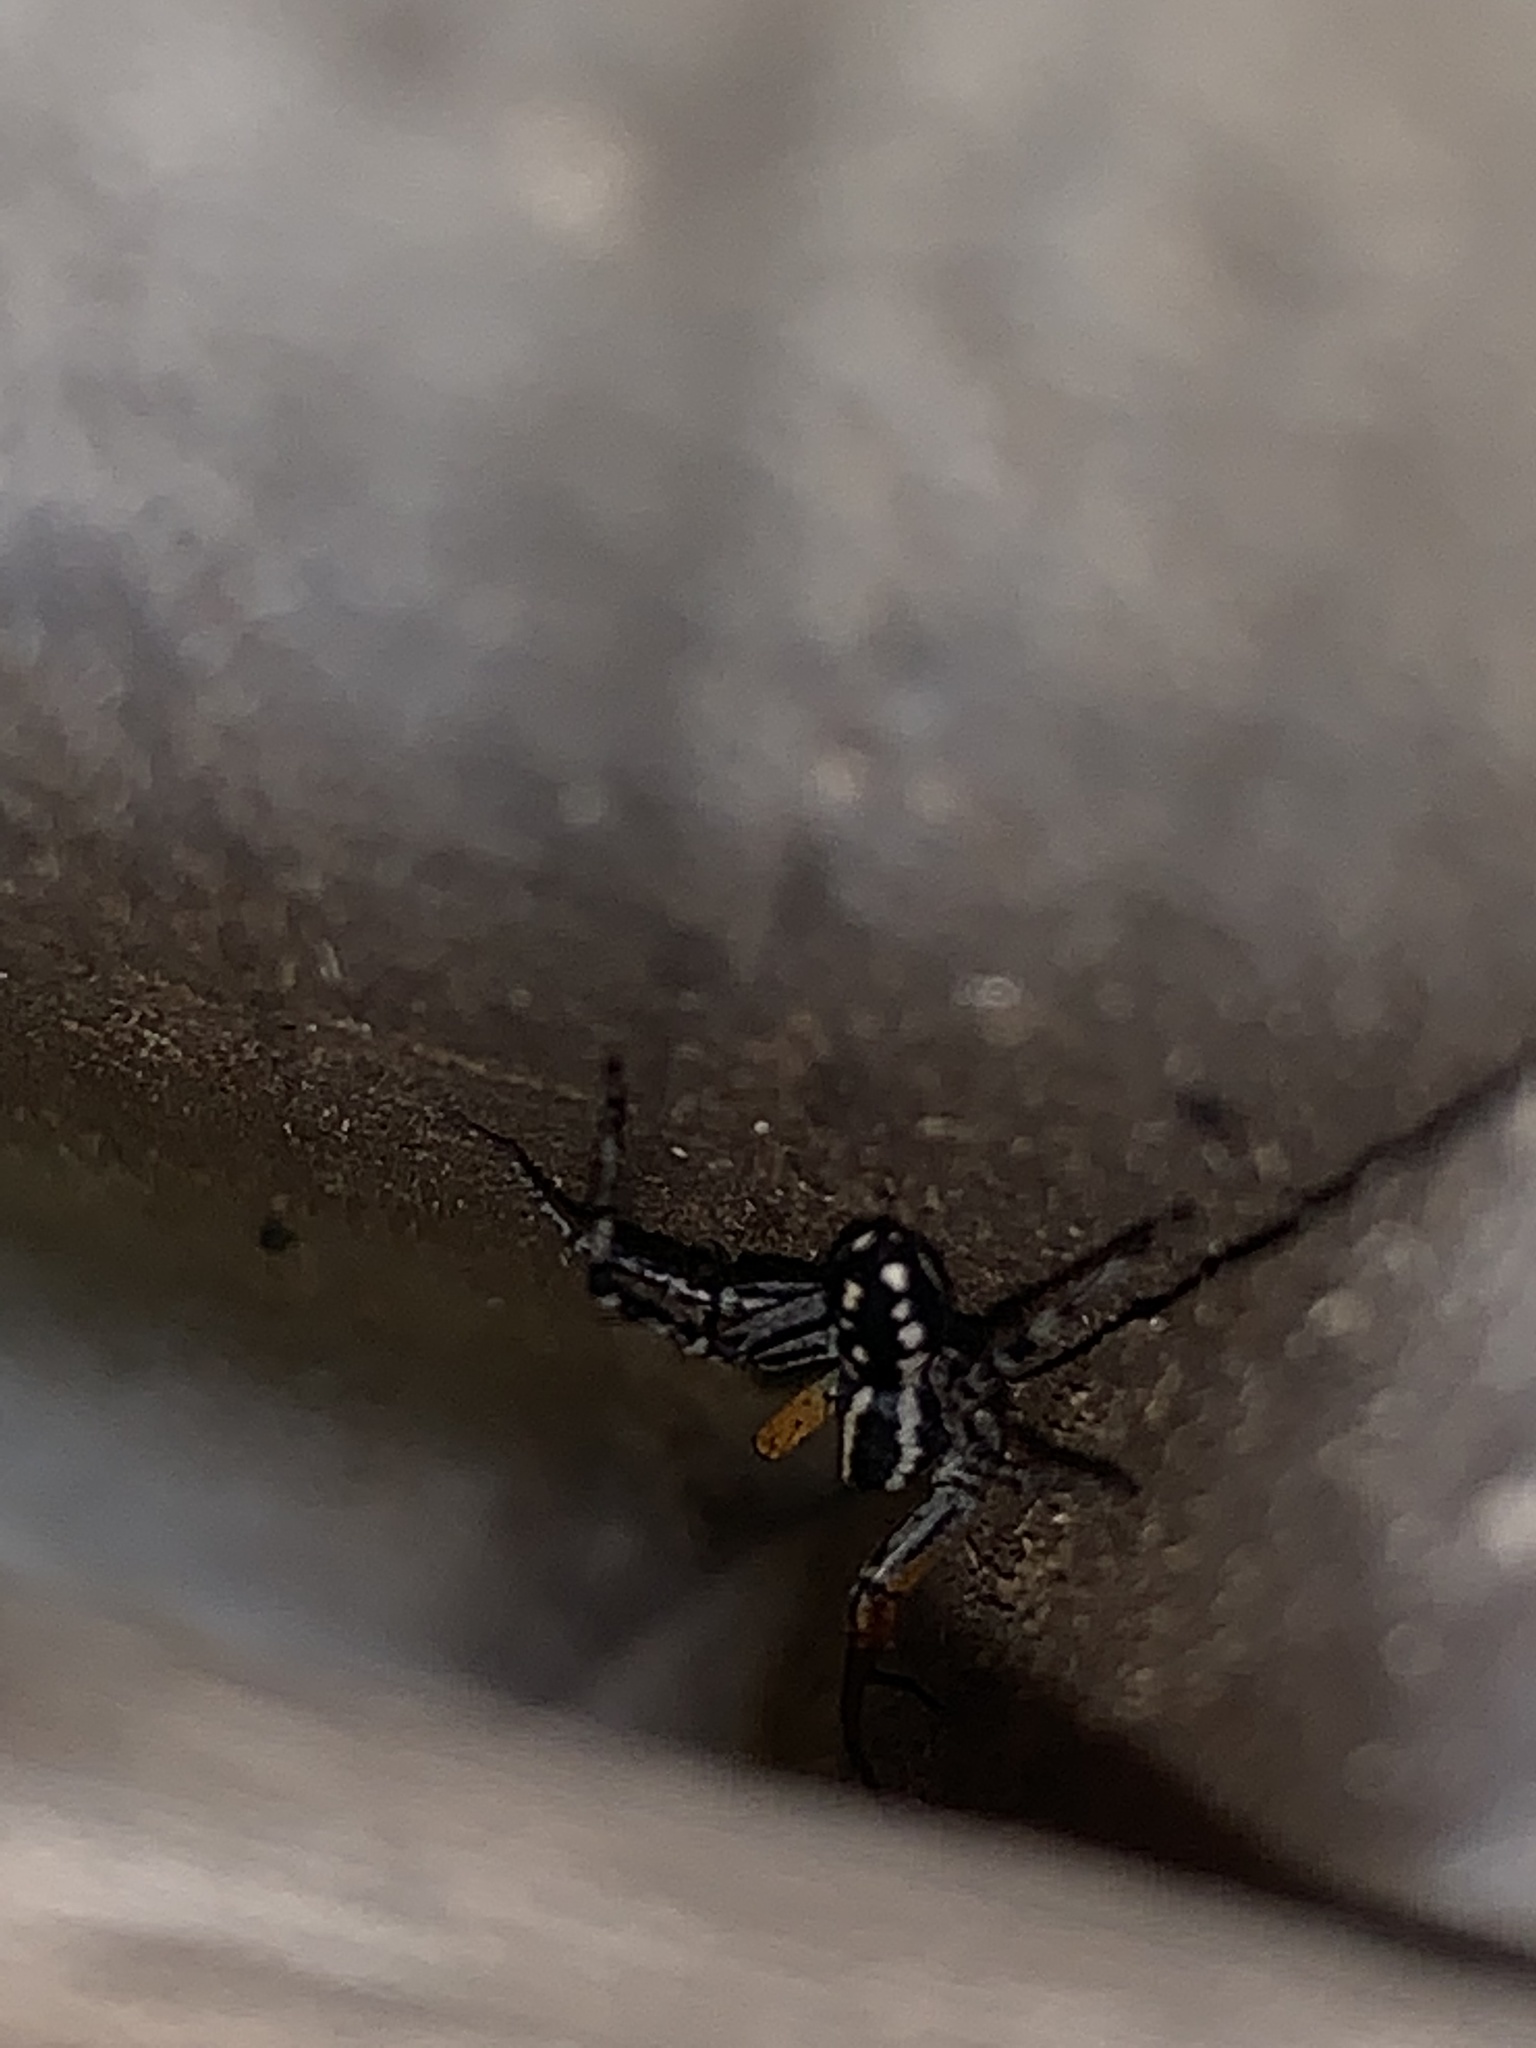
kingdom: Animalia
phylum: Arthropoda
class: Arachnida
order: Araneae
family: Corinnidae
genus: Nyssus
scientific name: Nyssus coloripes
